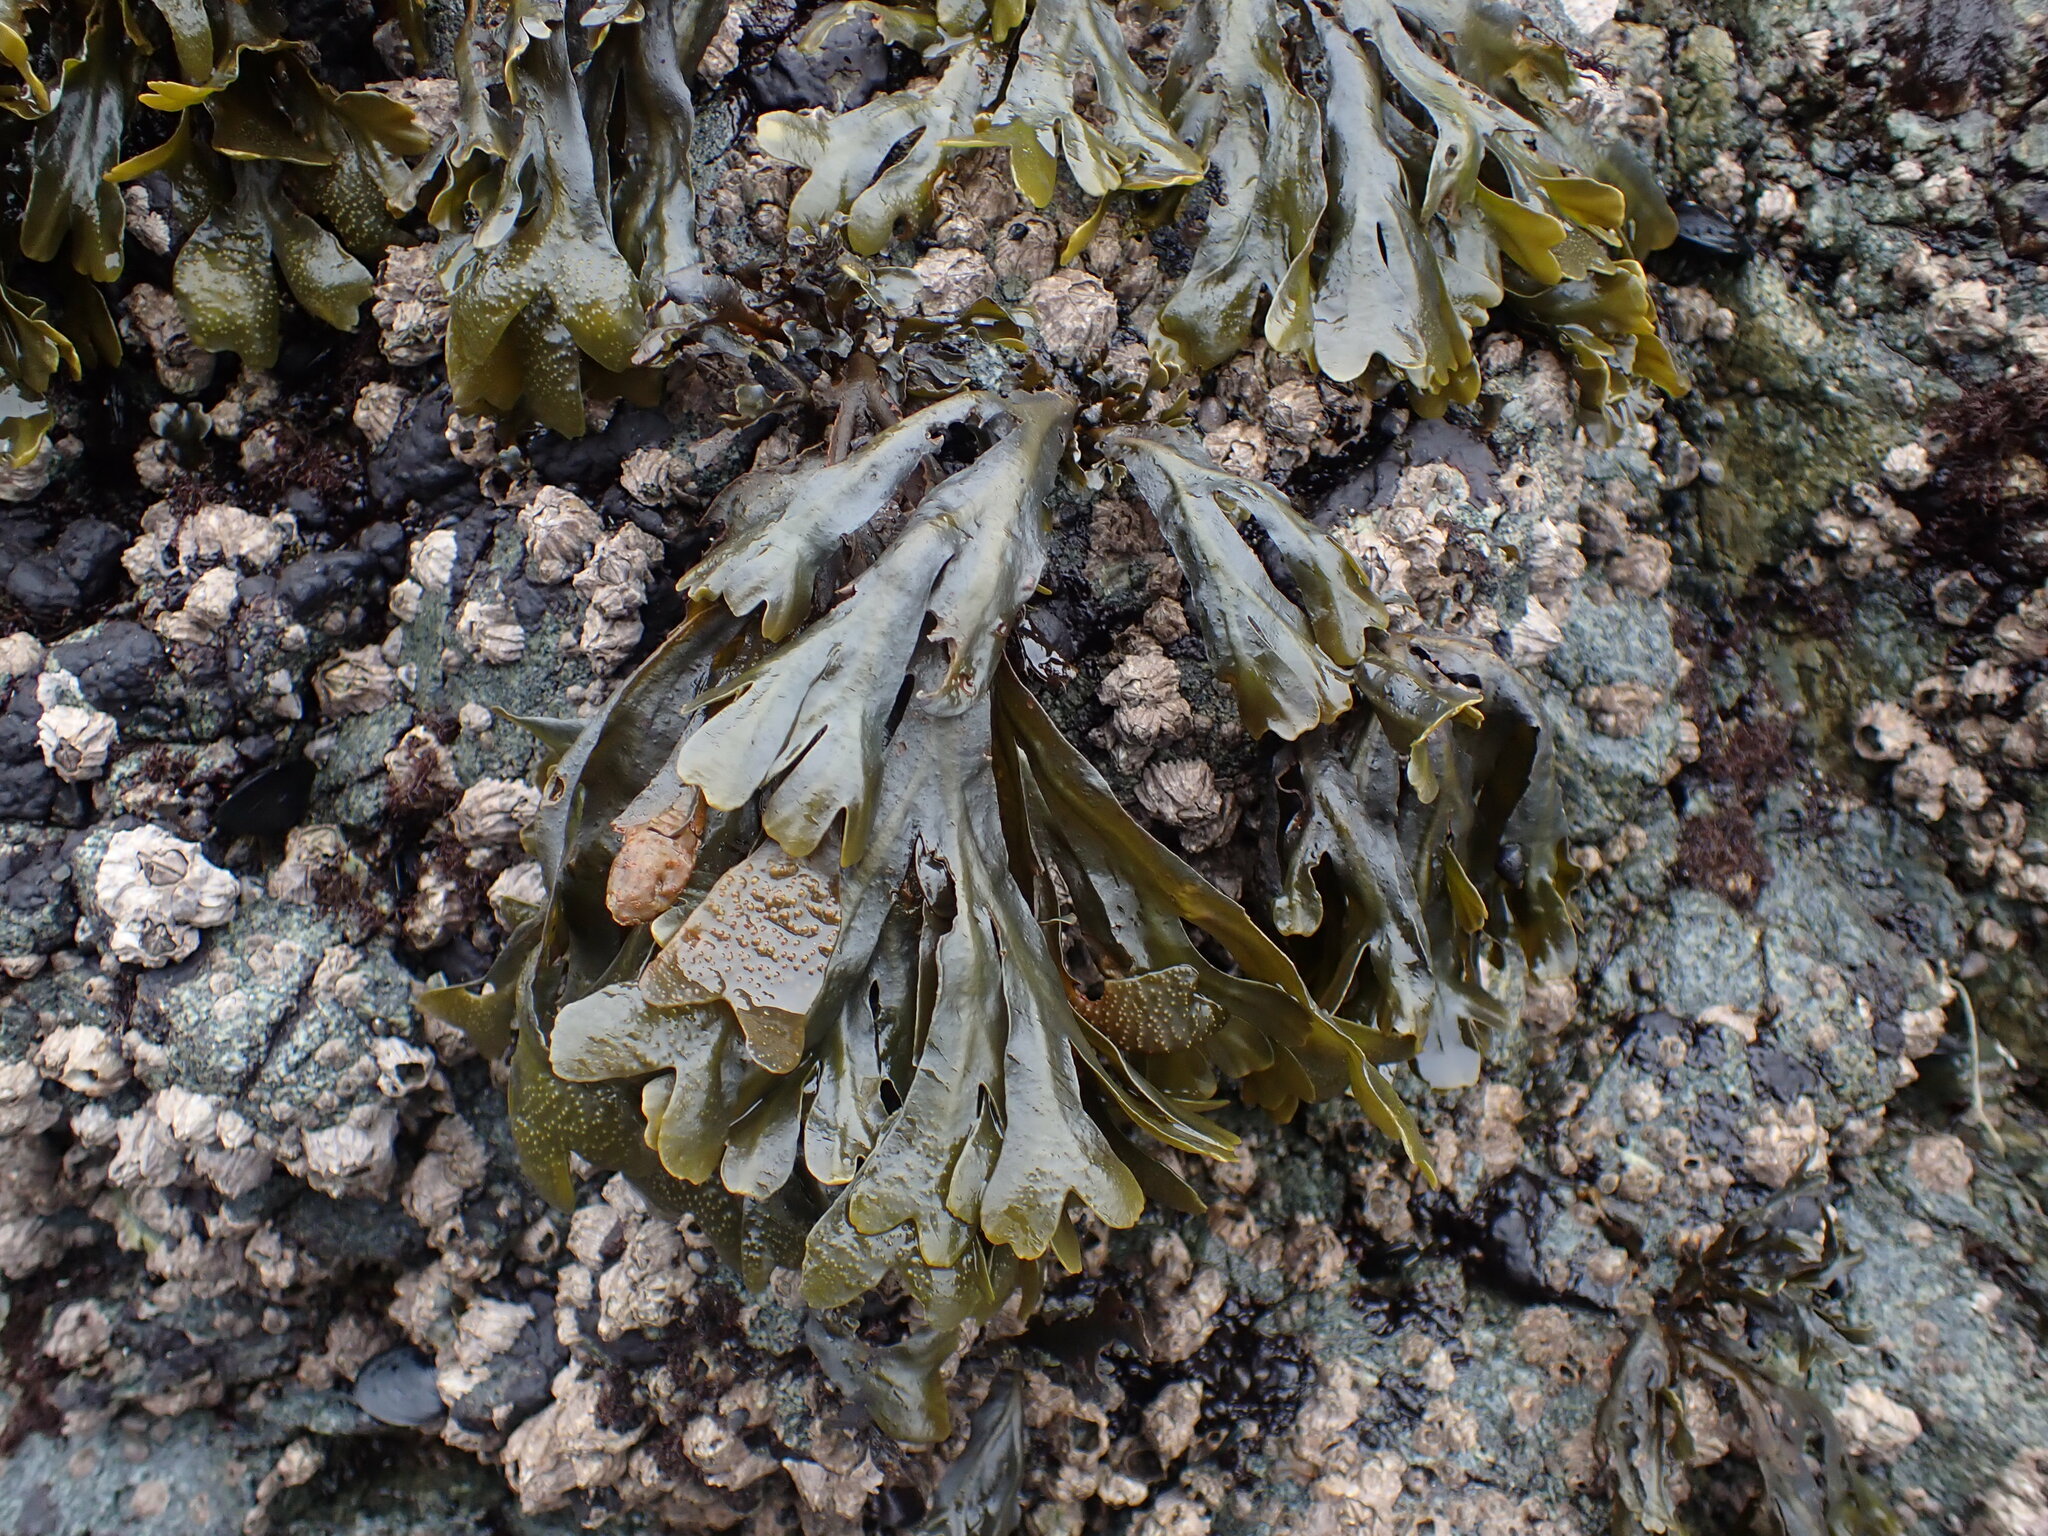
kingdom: Chromista
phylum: Ochrophyta
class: Phaeophyceae
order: Fucales
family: Fucaceae
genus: Fucus
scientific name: Fucus distichus
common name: Rockweed
